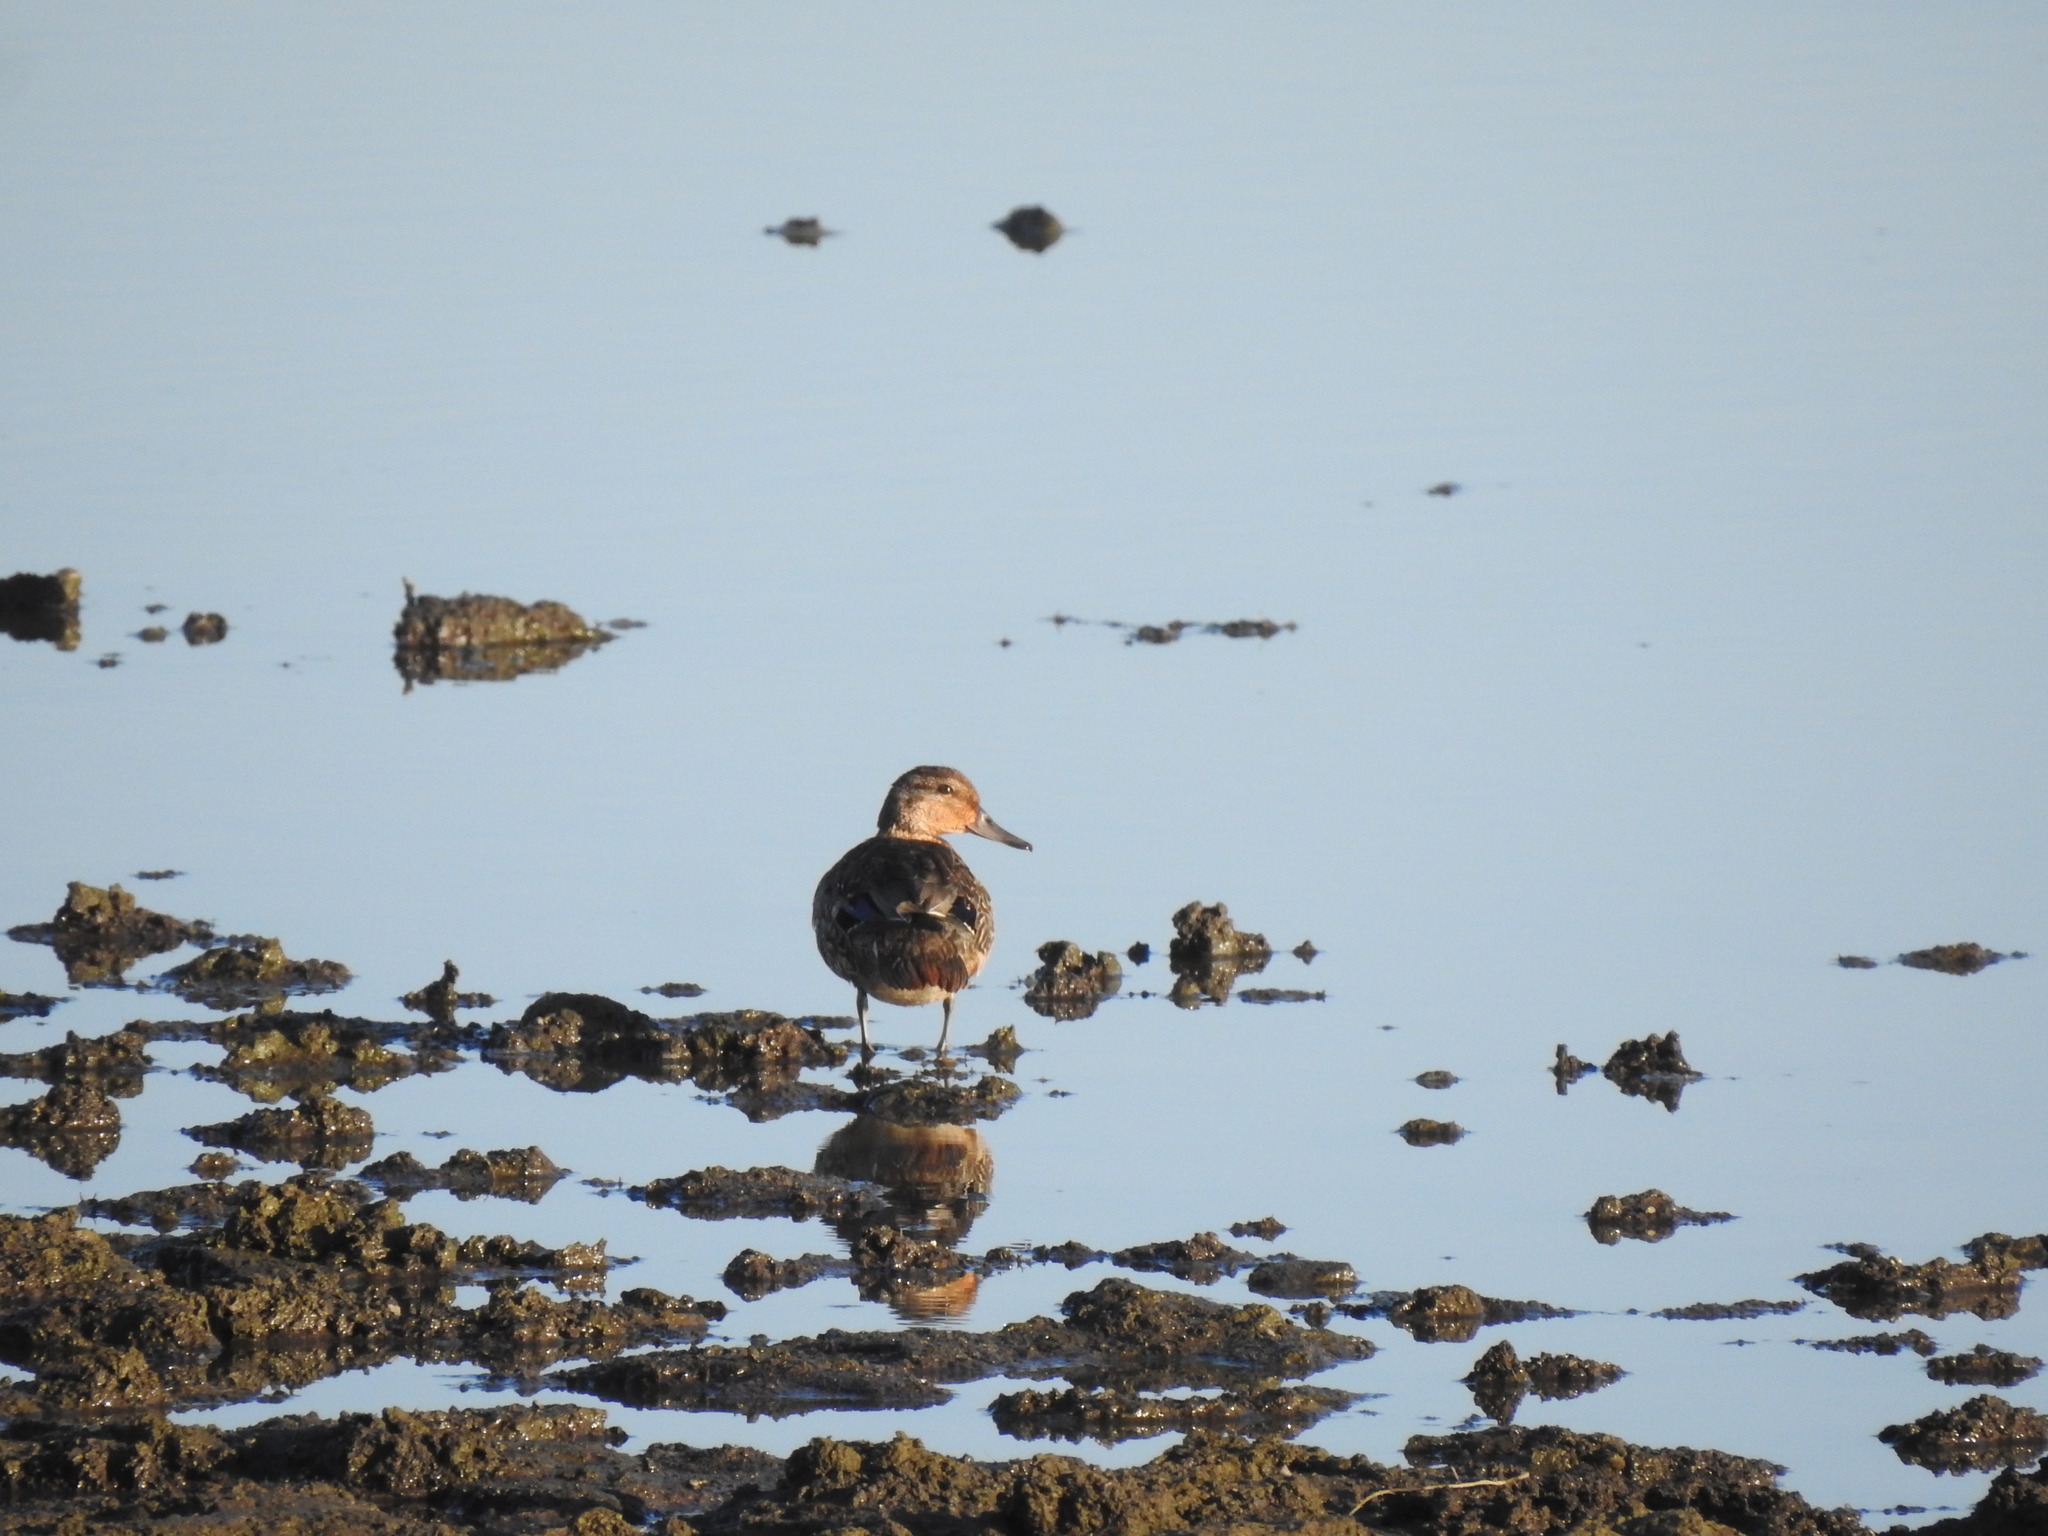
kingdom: Animalia
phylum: Chordata
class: Aves
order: Anseriformes
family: Anatidae
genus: Anas
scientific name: Anas crecca
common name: Eurasian teal
